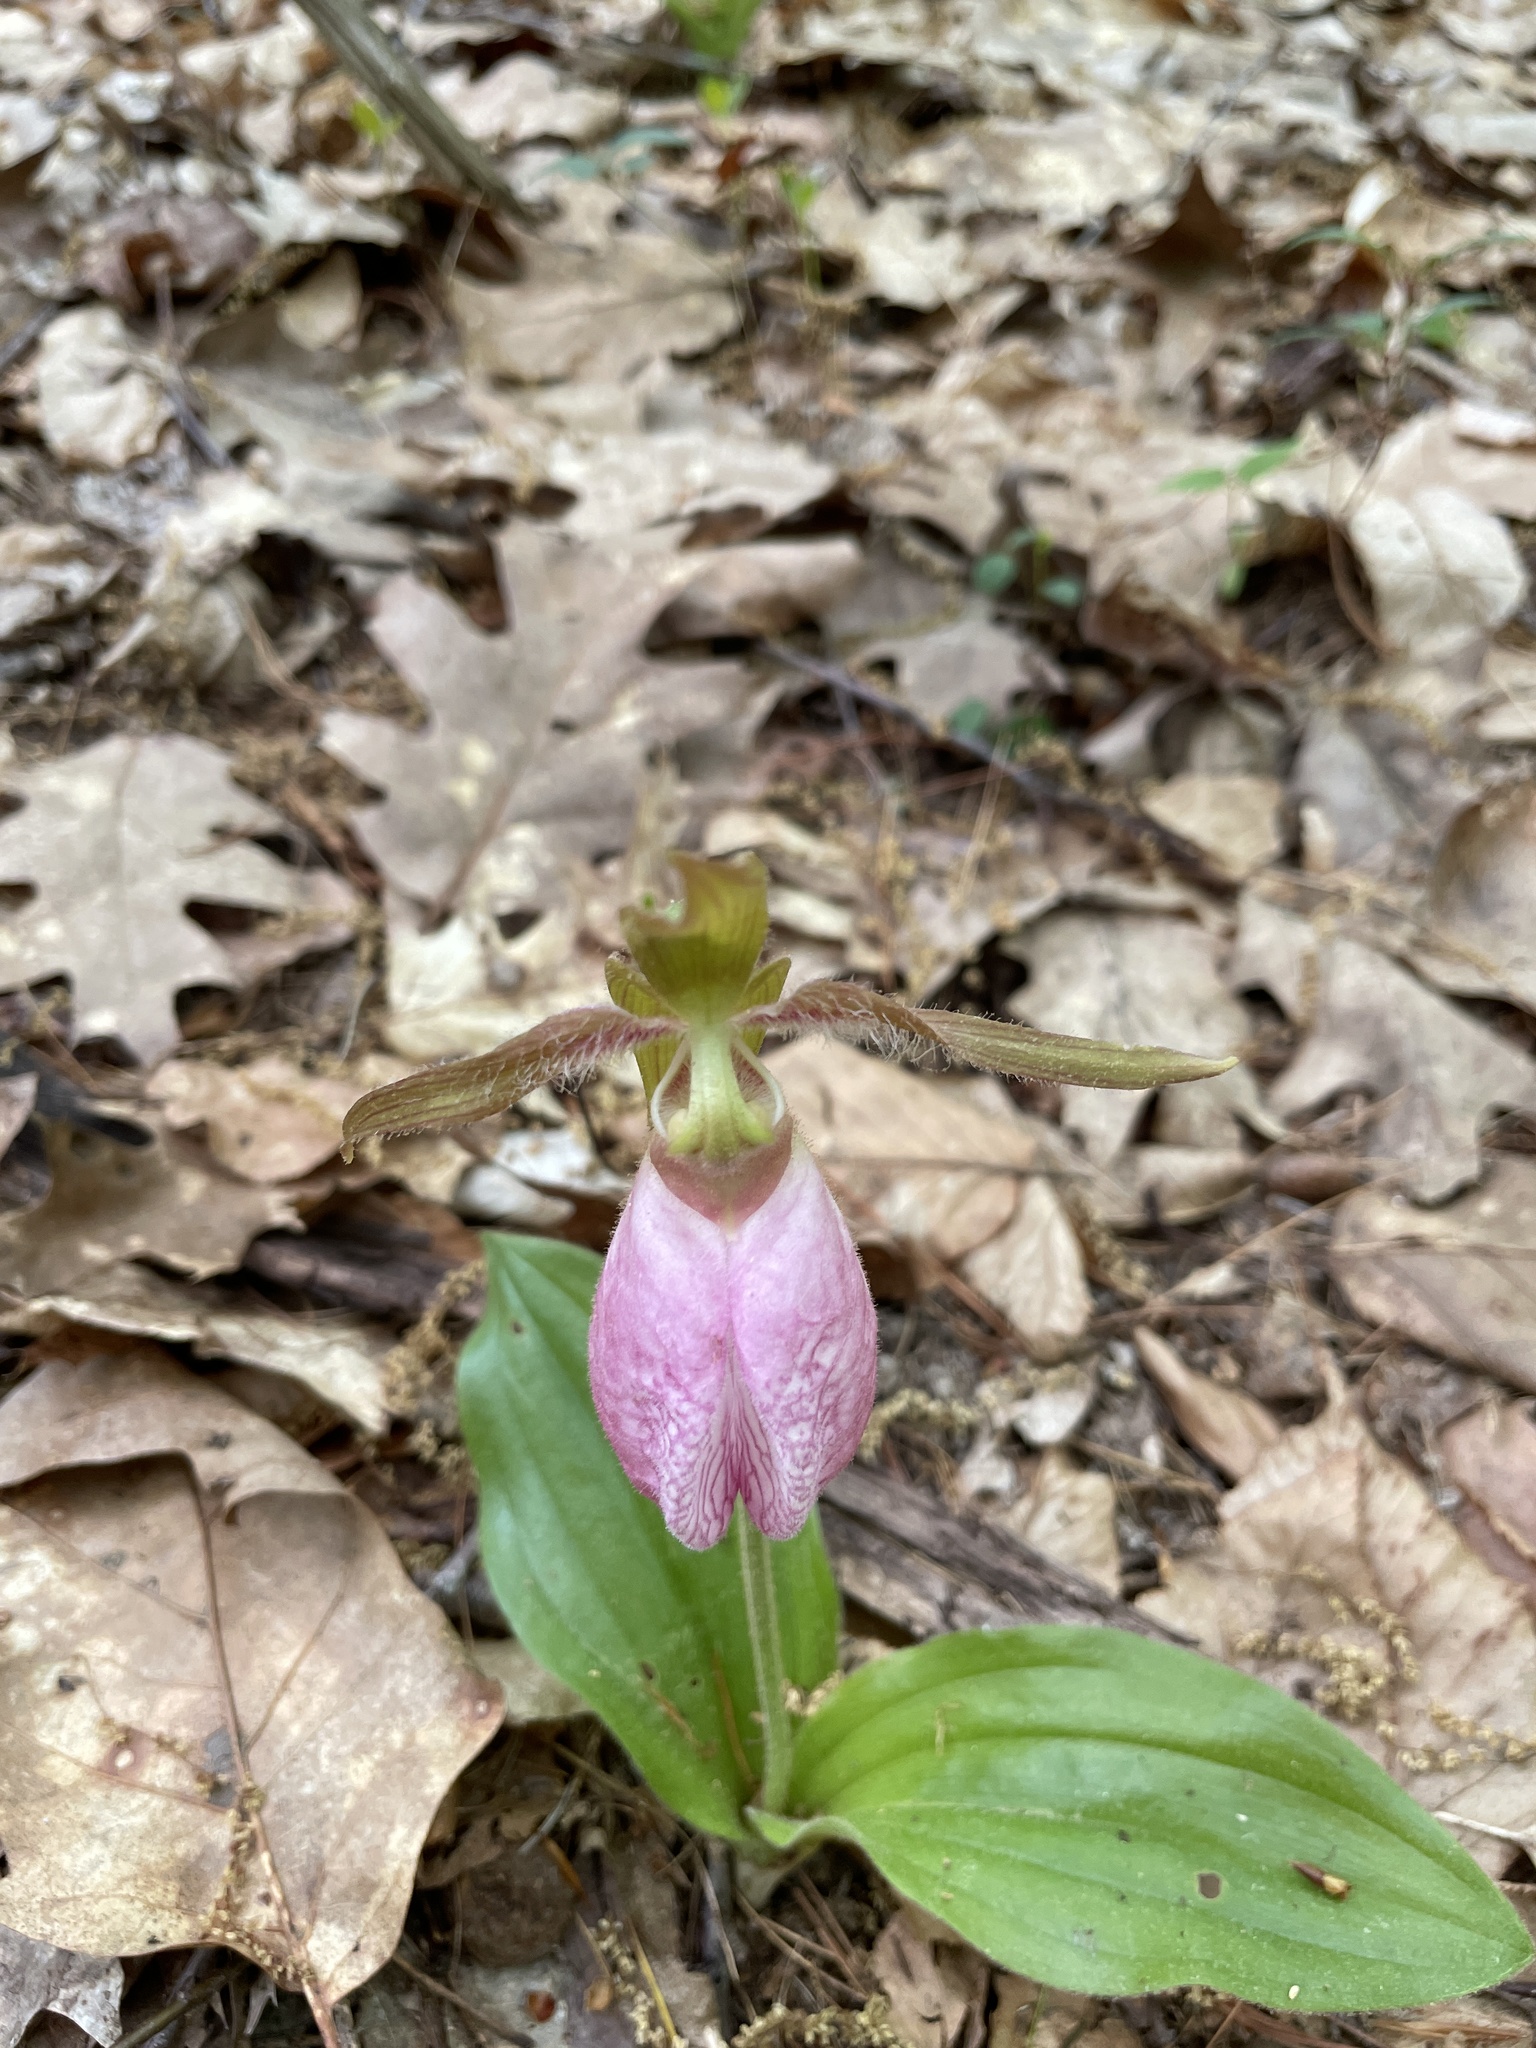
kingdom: Plantae
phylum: Tracheophyta
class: Liliopsida
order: Asparagales
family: Orchidaceae
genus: Cypripedium
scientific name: Cypripedium acaule
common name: Pink lady's-slipper
